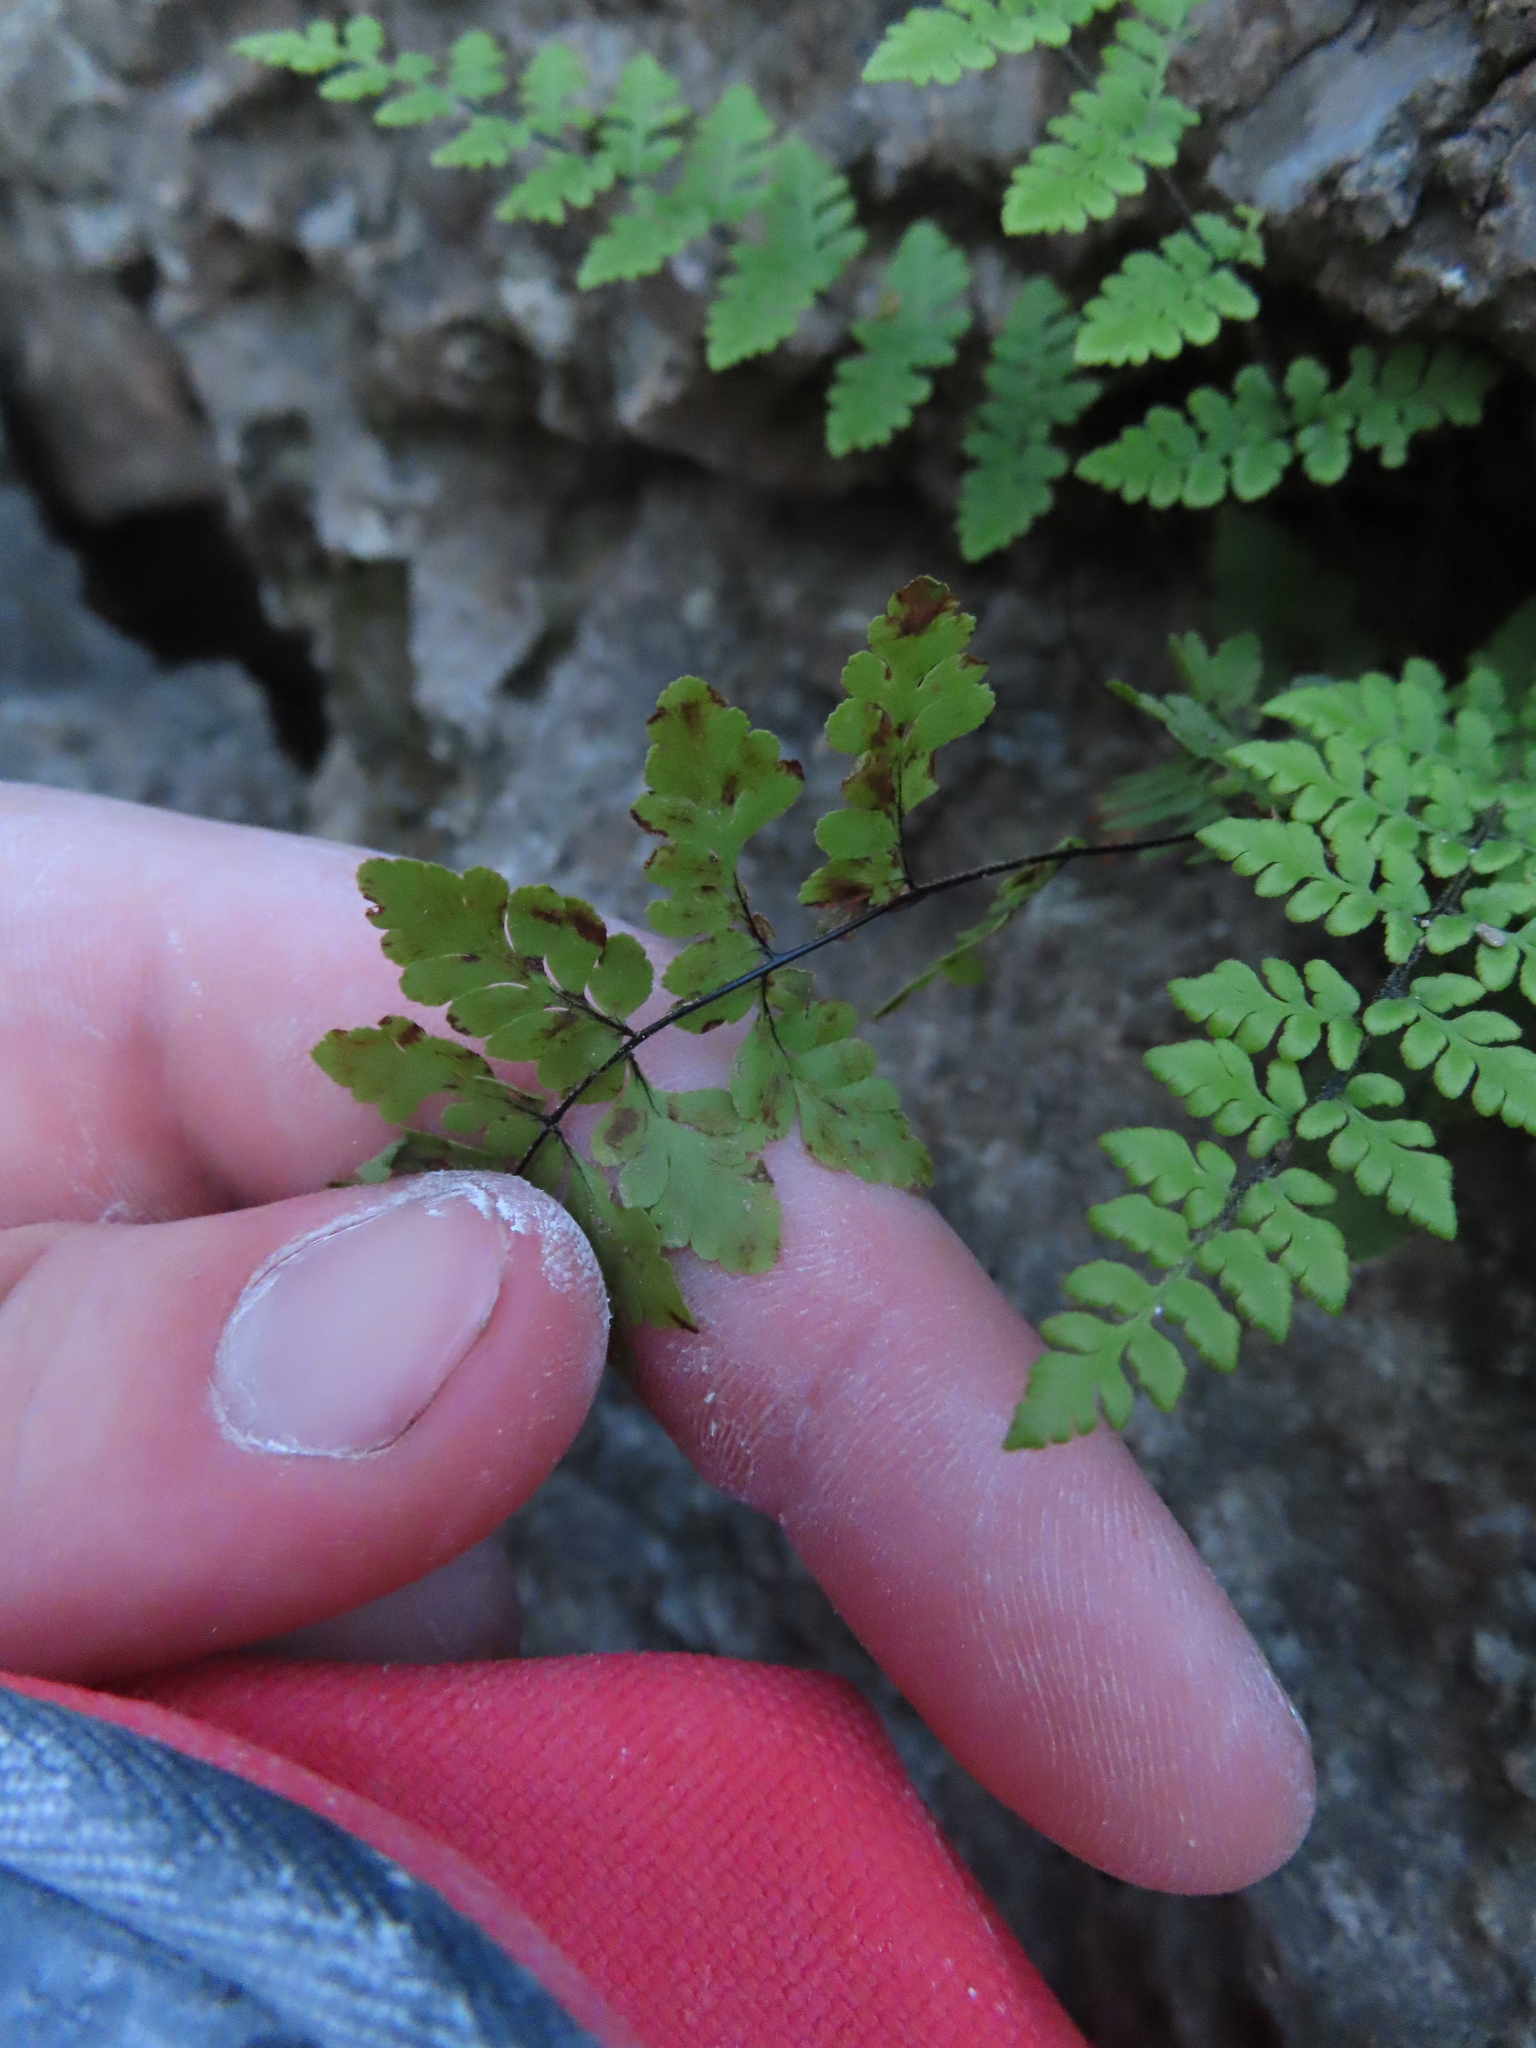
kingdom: Plantae
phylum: Tracheophyta
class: Polypodiopsida
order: Polypodiales
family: Pteridaceae
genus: Myriopteris
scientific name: Myriopteris alabamensis
